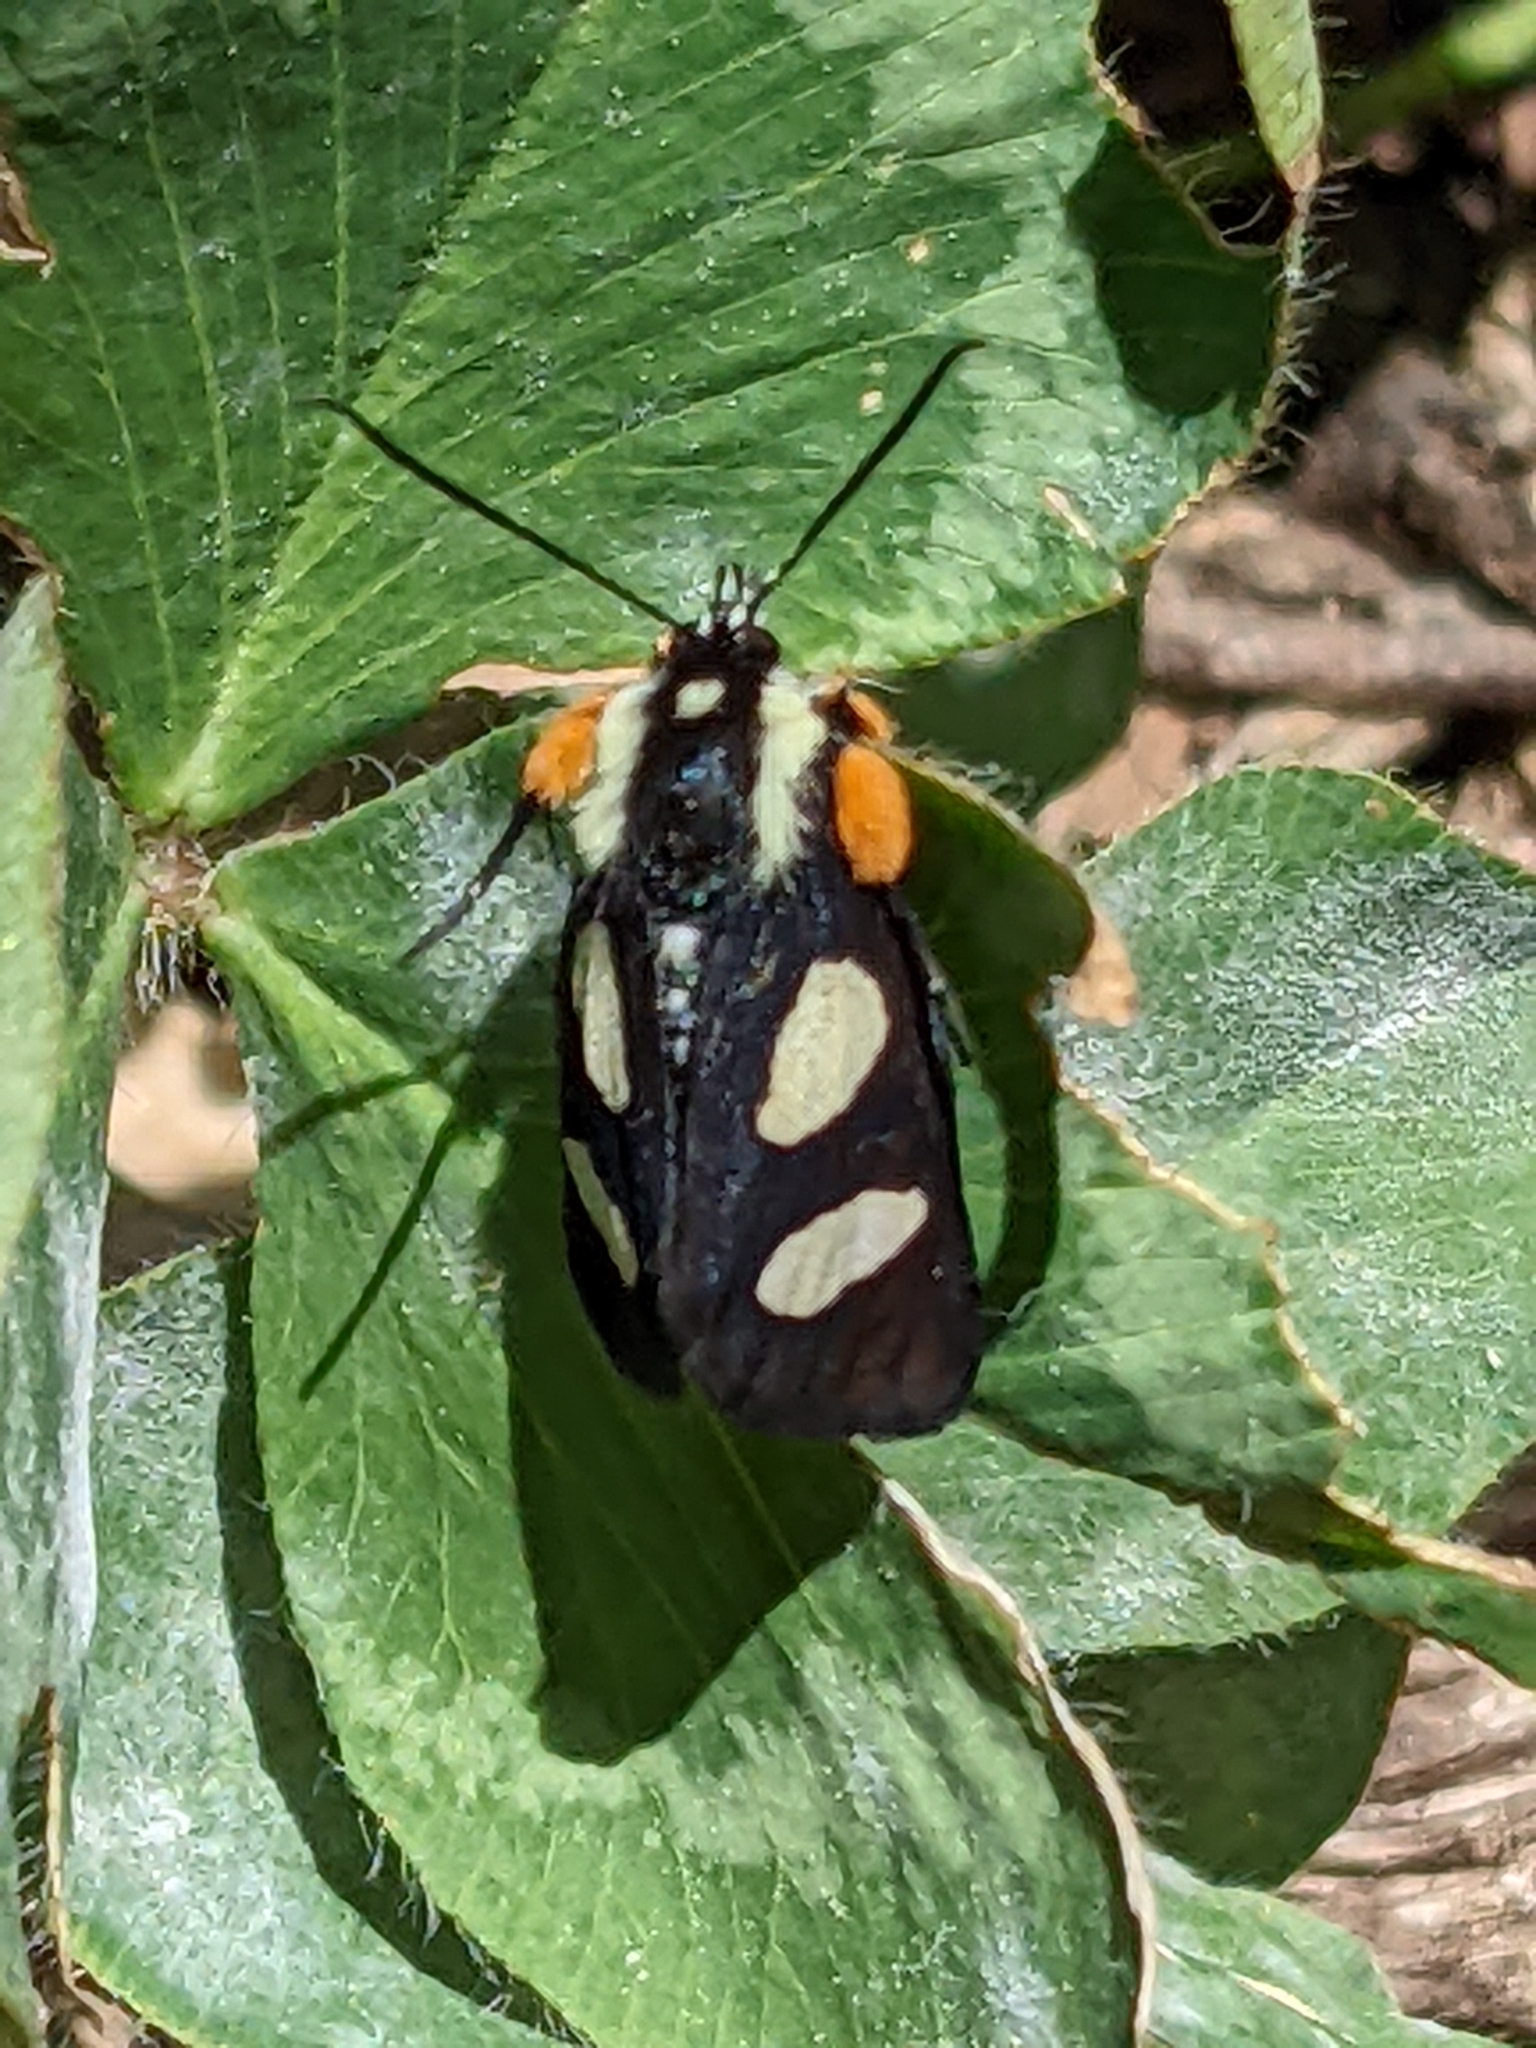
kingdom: Animalia
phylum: Arthropoda
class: Insecta
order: Lepidoptera
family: Noctuidae
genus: Alypia
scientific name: Alypia octomaculata
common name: Eight-spotted forester
